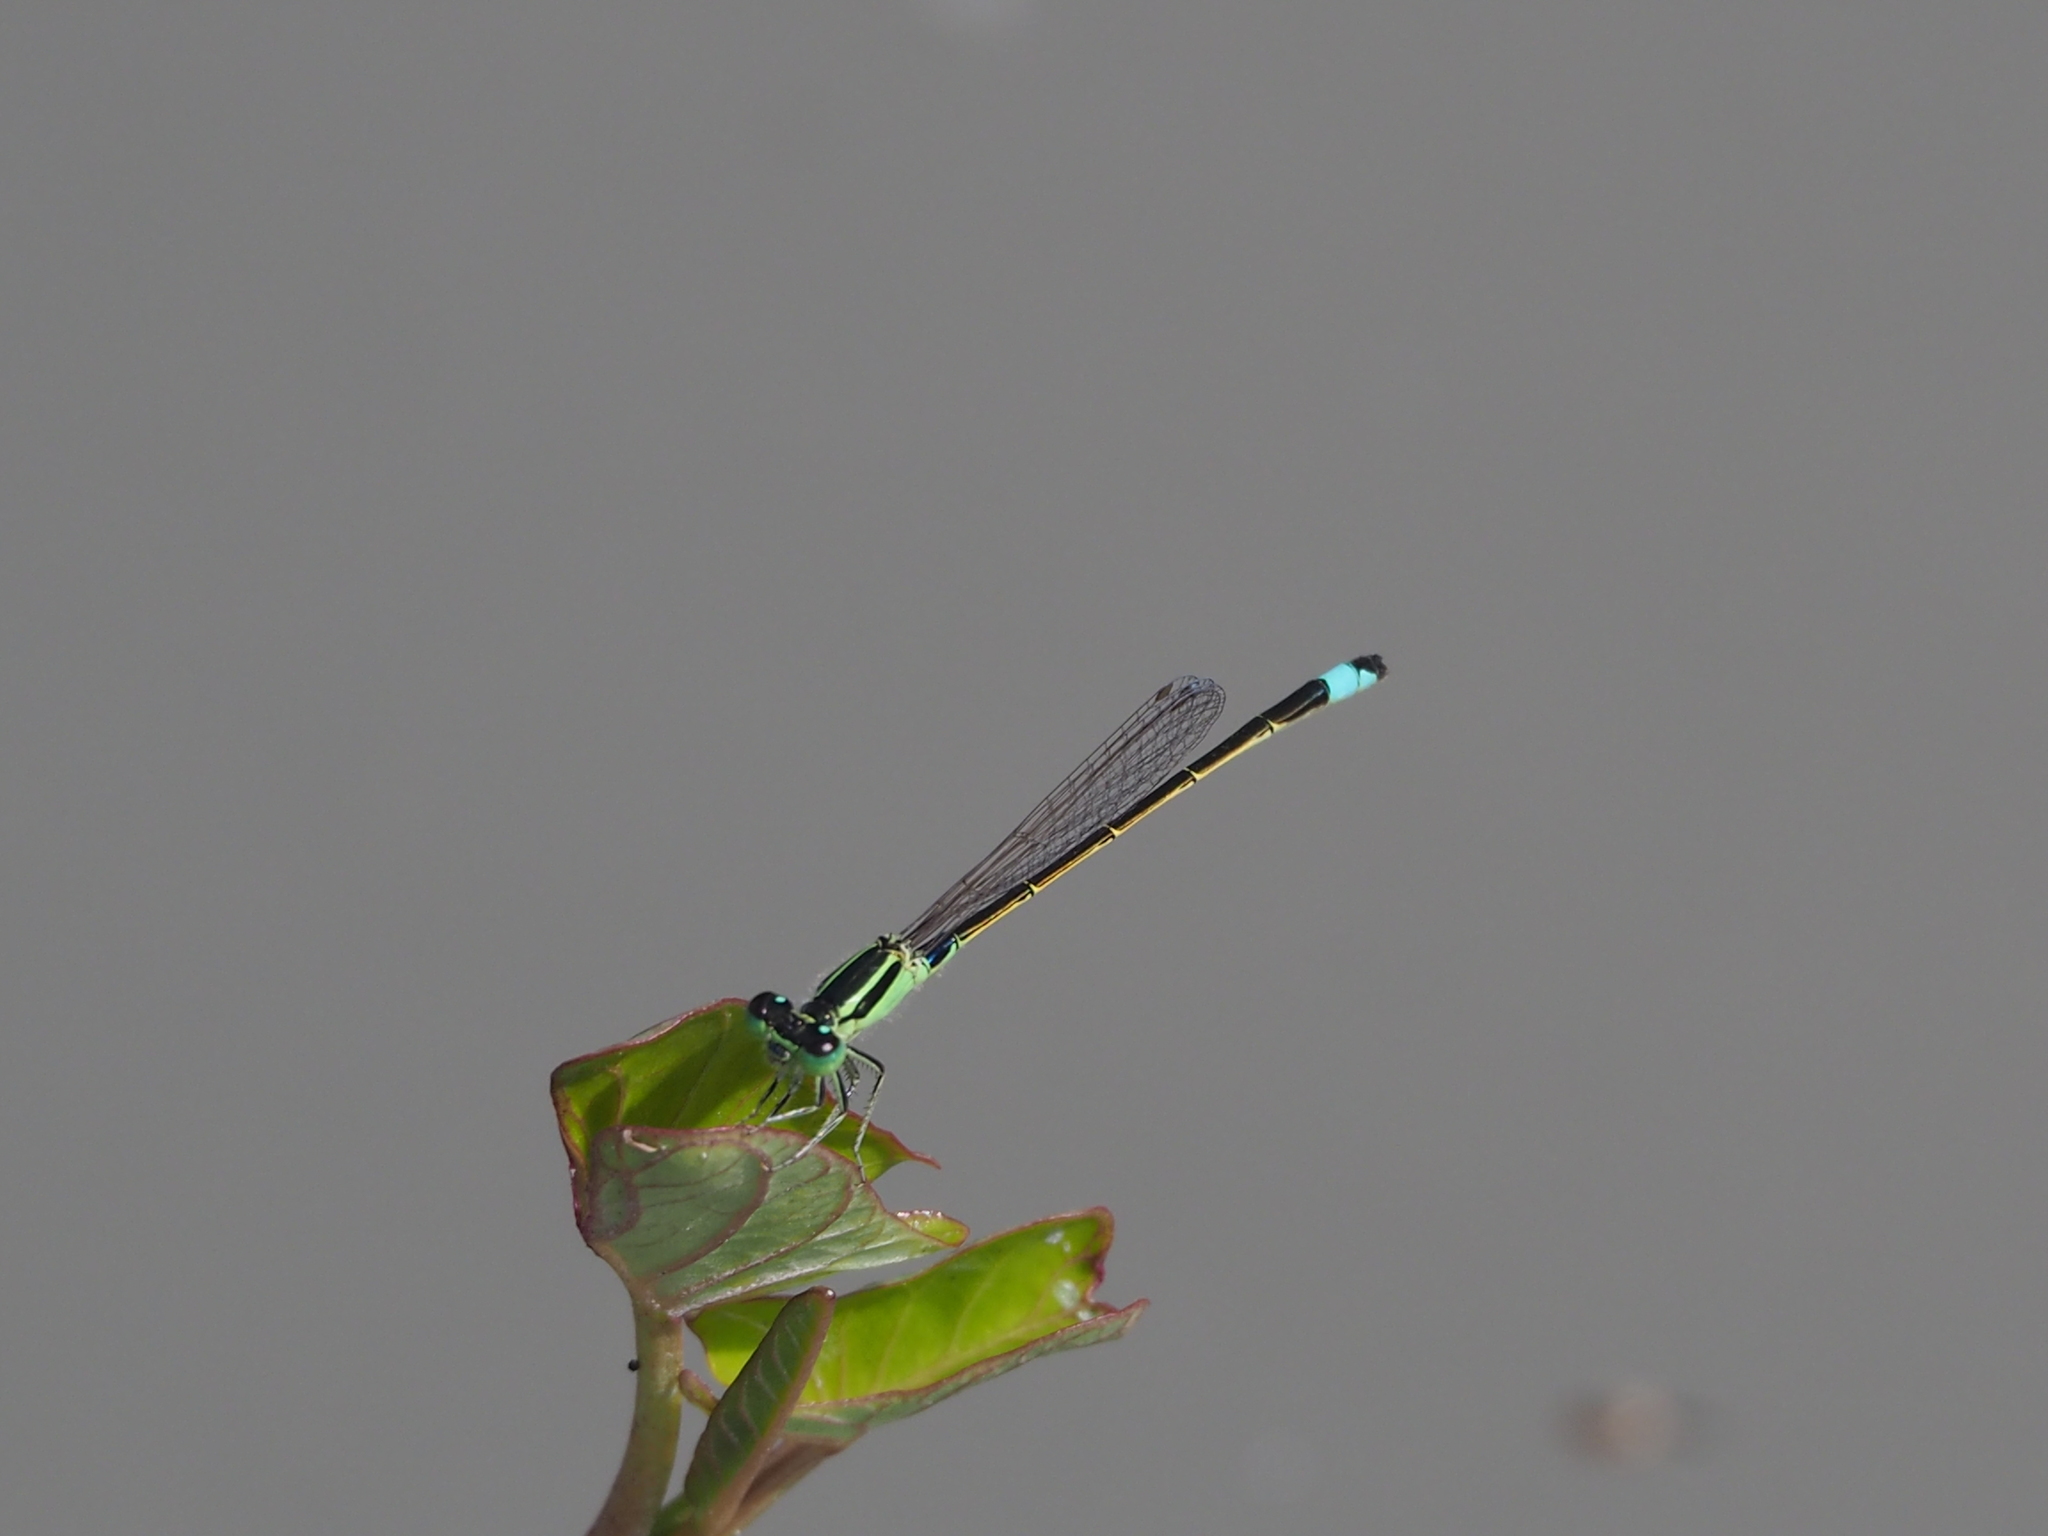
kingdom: Animalia
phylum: Arthropoda
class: Insecta
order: Odonata
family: Coenagrionidae
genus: Ischnura
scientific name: Ischnura senegalensis
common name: Tropical bluetail
